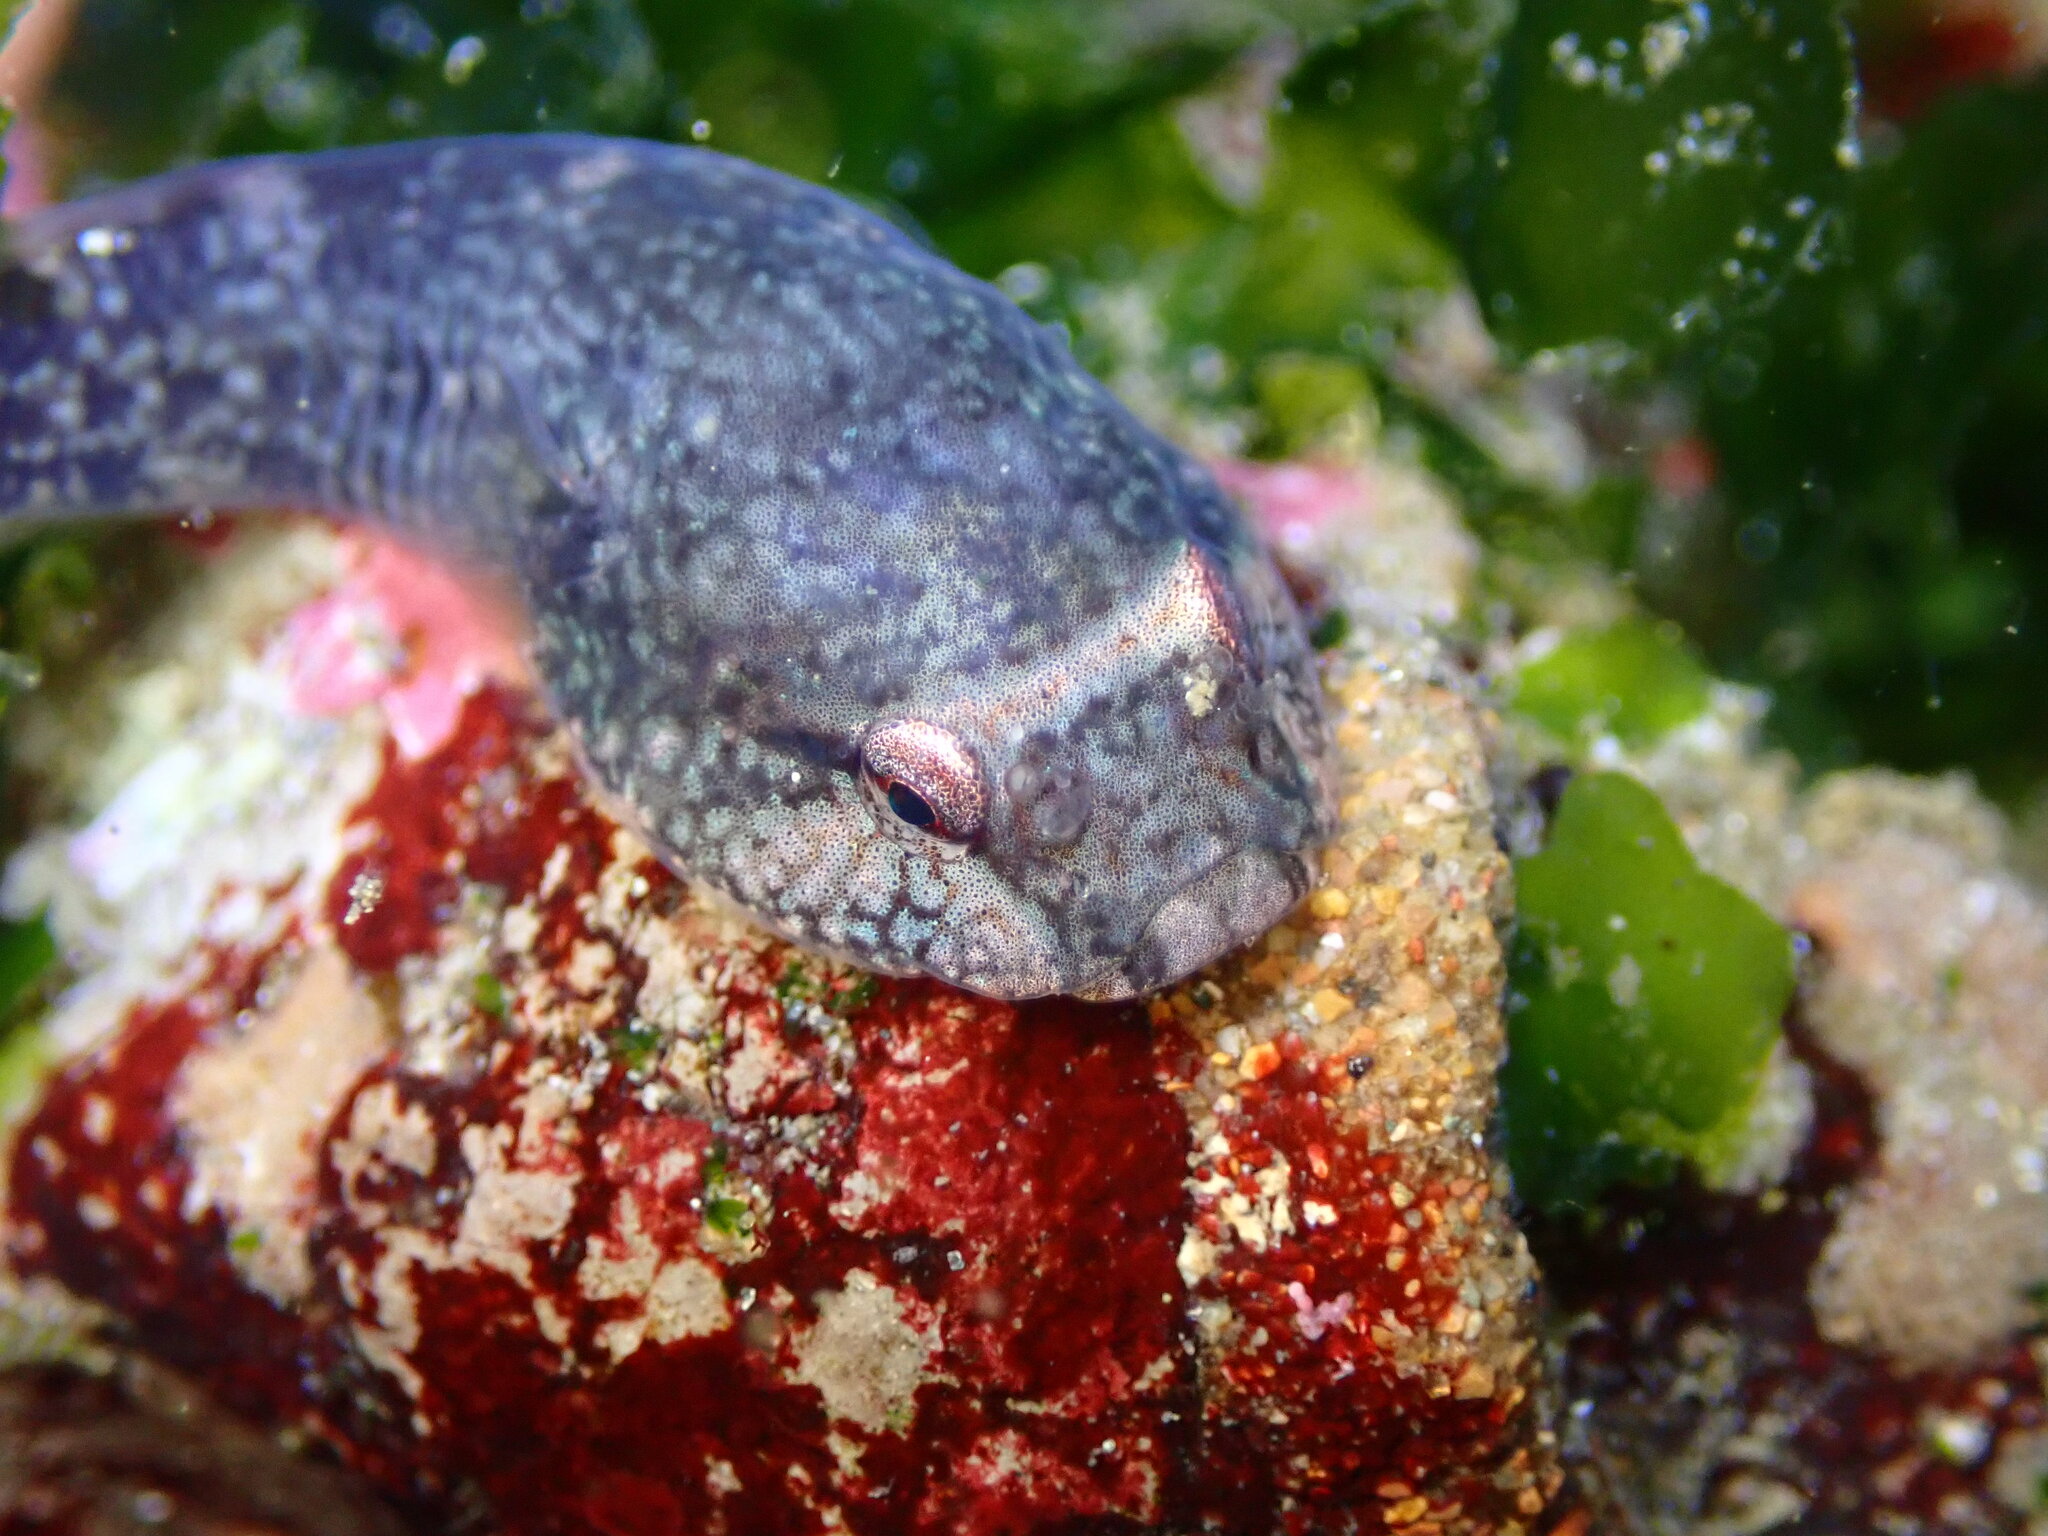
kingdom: Animalia
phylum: Chordata
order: Gobiesociformes
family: Gobiesocidae
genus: Gobiesox
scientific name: Gobiesox maeandricus
